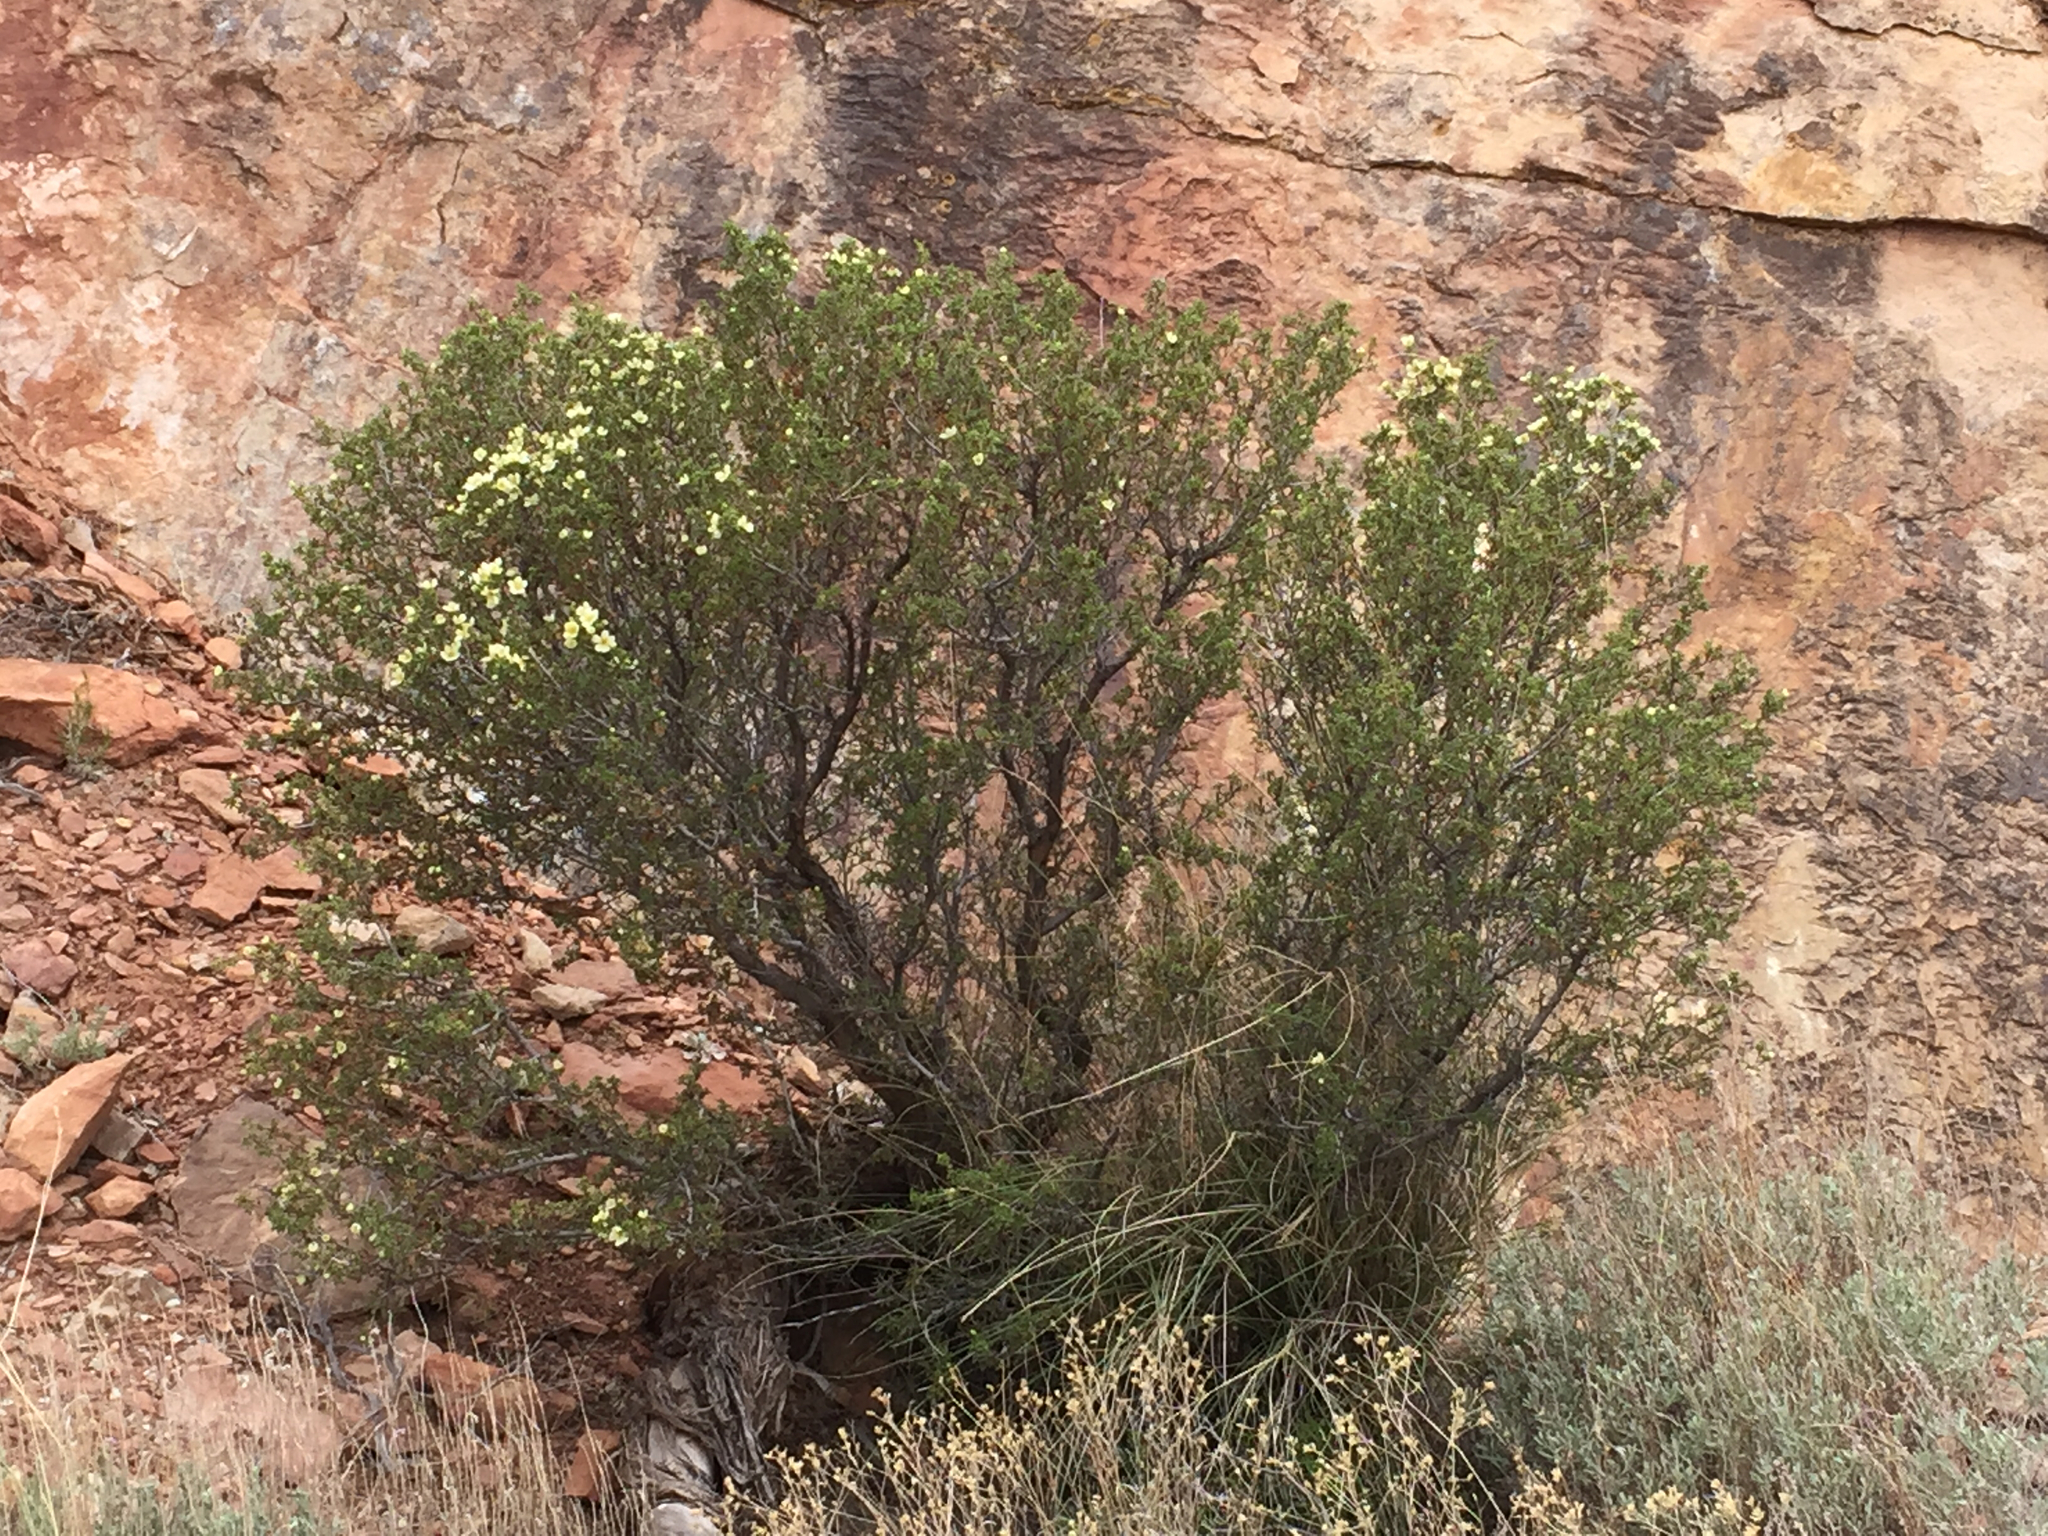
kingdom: Plantae
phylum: Tracheophyta
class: Magnoliopsida
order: Rosales
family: Rosaceae
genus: Purshia
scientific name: Purshia stansburiana
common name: Stansbury's cliffrose
